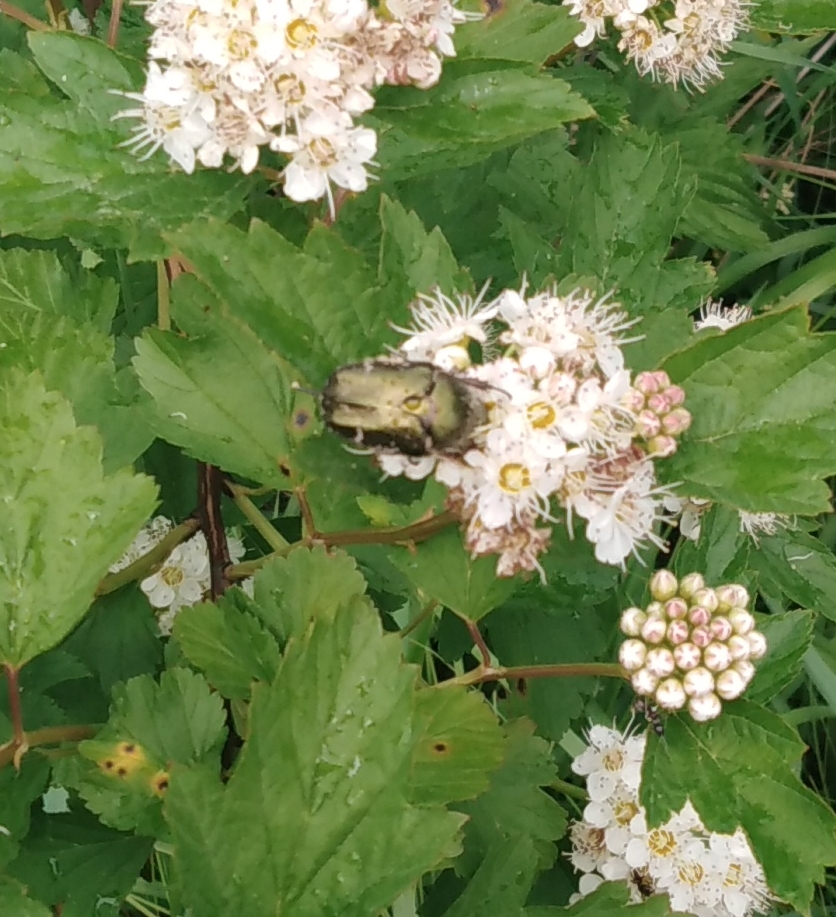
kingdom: Animalia
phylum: Arthropoda
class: Insecta
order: Coleoptera
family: Scarabaeidae
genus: Protaetia
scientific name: Protaetia cuprea
